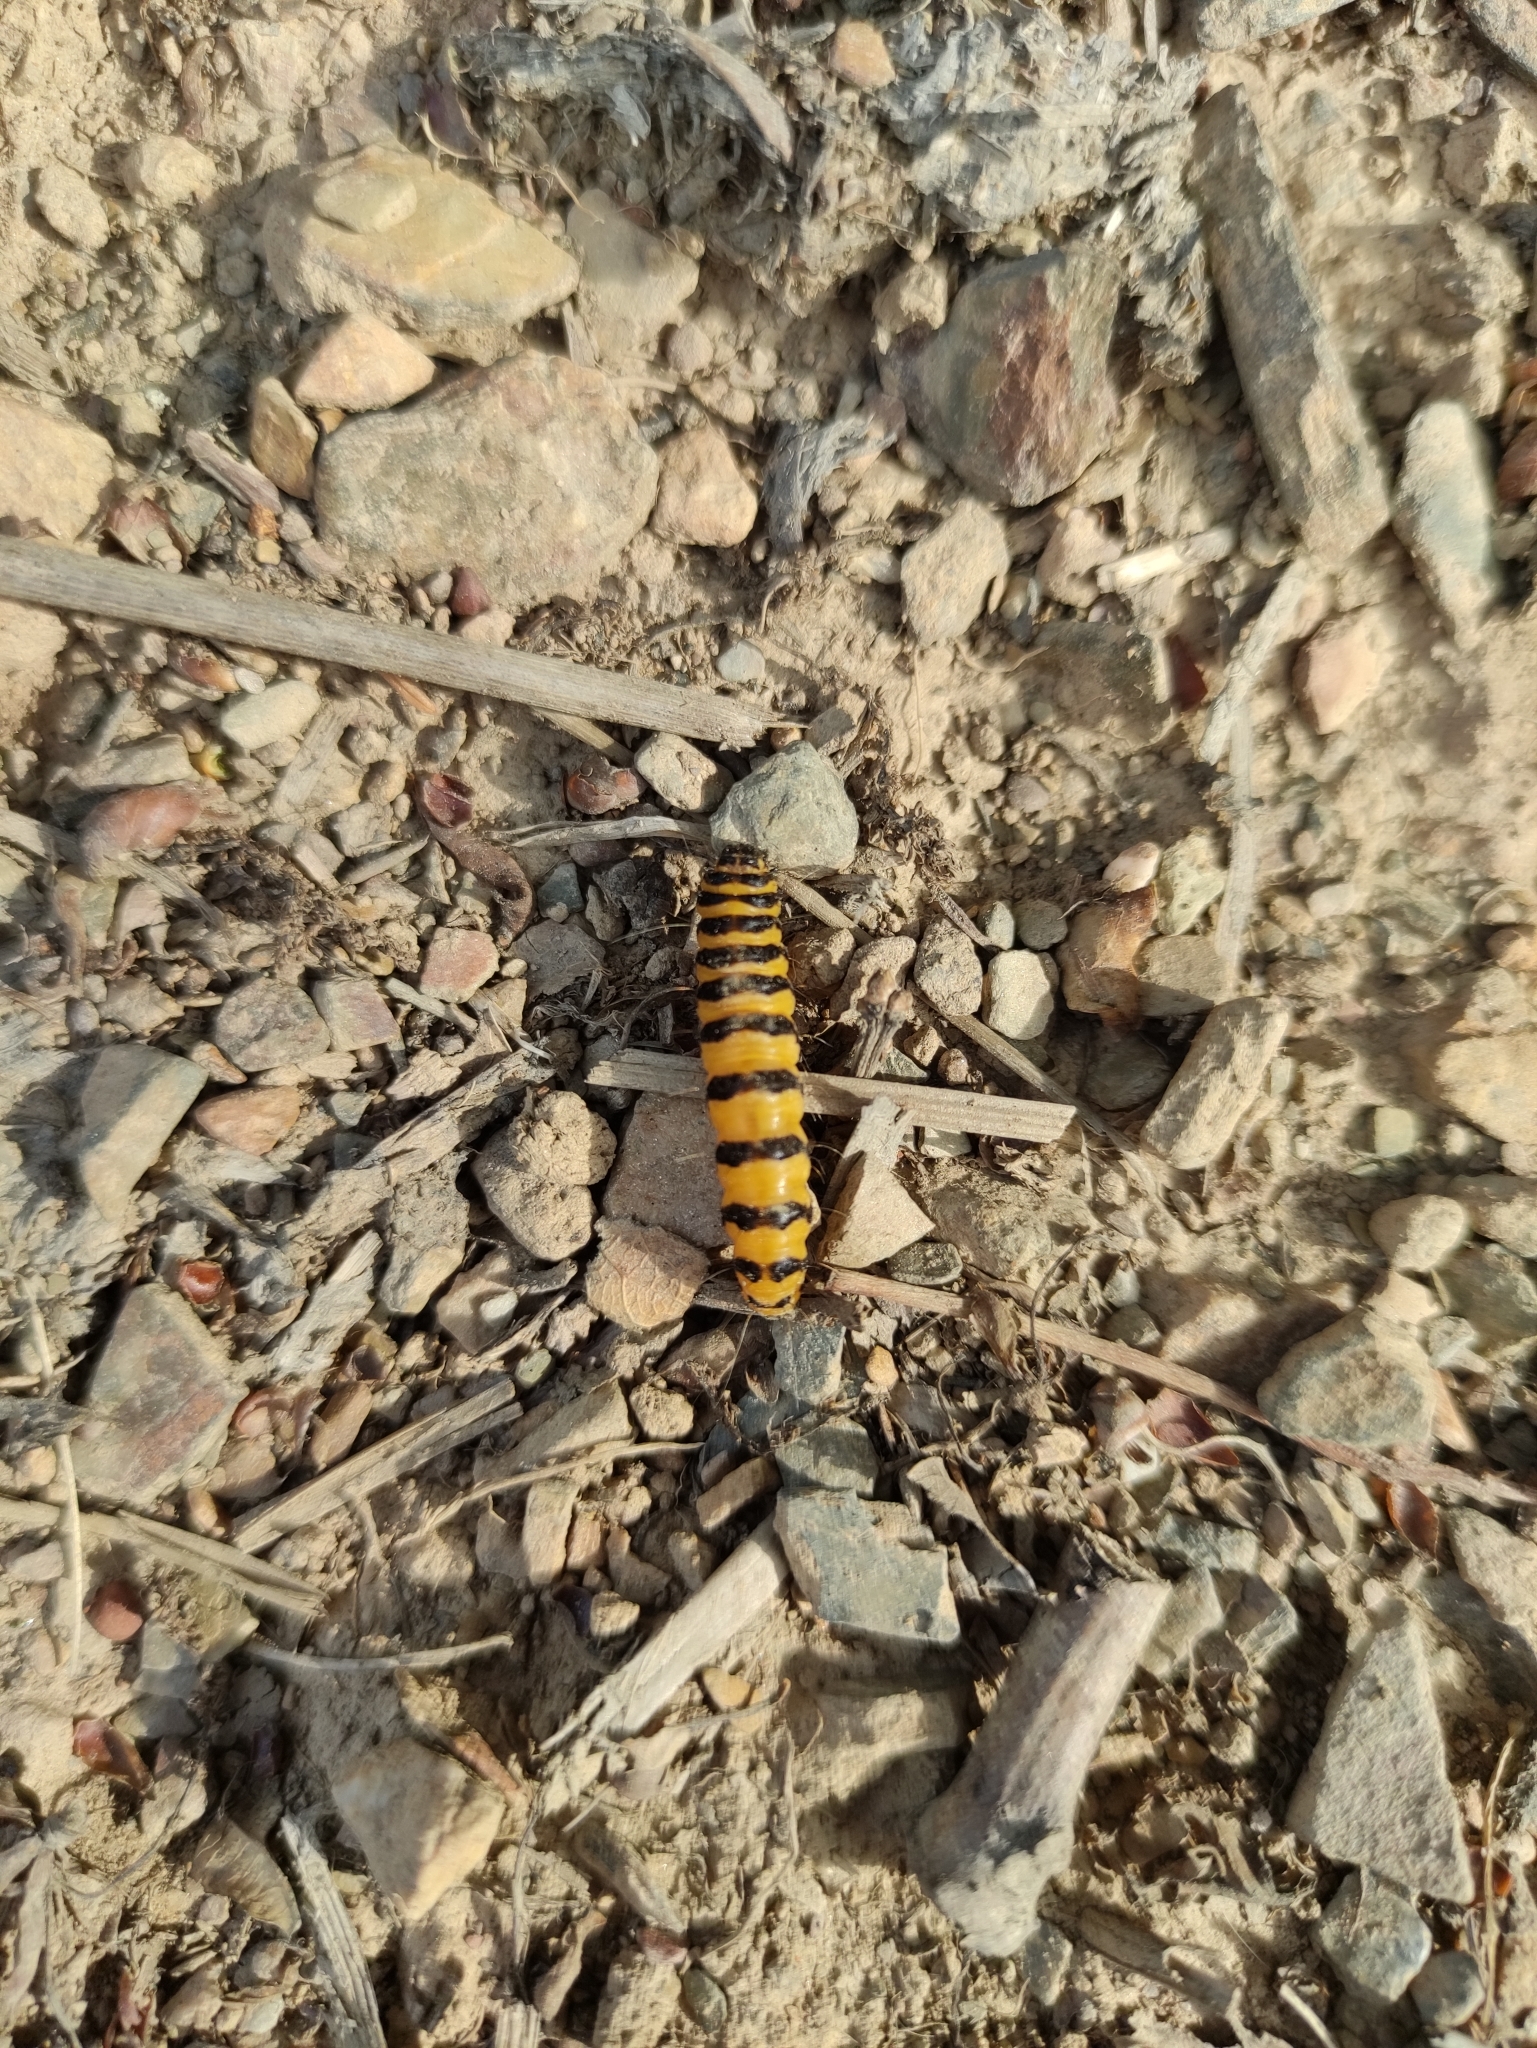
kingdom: Animalia
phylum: Arthropoda
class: Insecta
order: Lepidoptera
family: Erebidae
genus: Tyria
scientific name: Tyria jacobaeae
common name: Cinnabar
